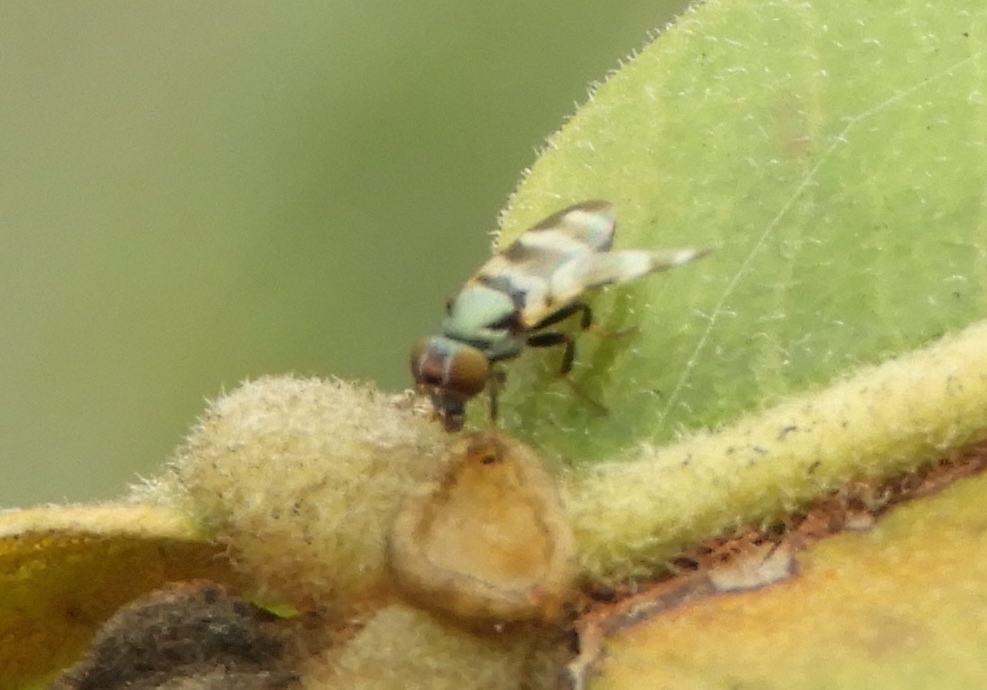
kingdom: Animalia
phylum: Arthropoda
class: Insecta
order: Diptera
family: Ulidiidae
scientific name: Ulidiidae
